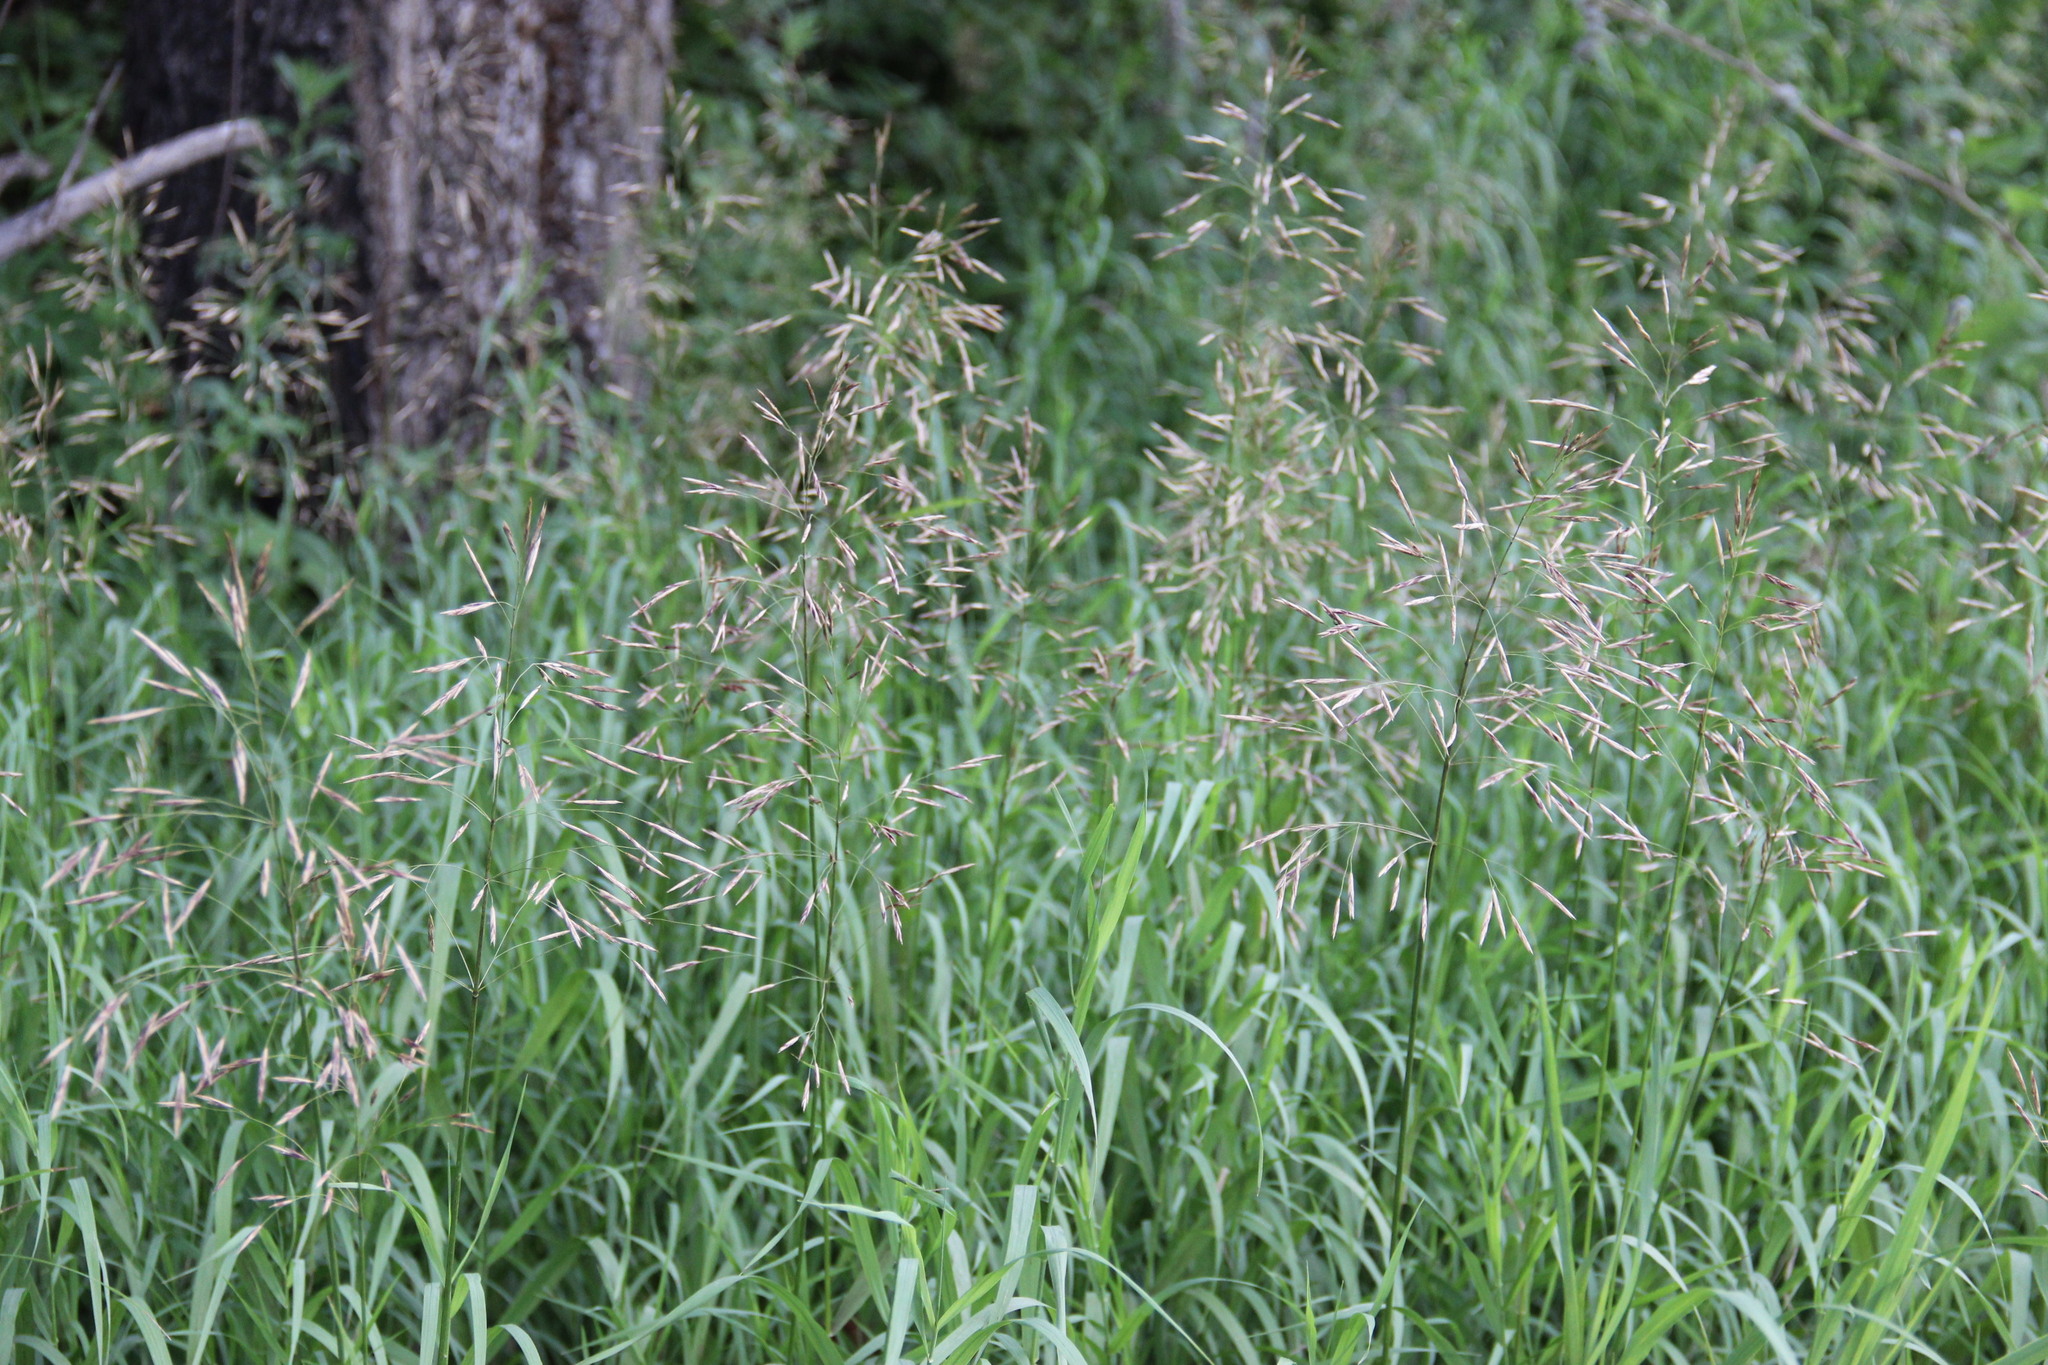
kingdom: Plantae
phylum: Tracheophyta
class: Liliopsida
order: Poales
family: Poaceae
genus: Bromus
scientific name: Bromus inermis
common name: Smooth brome
